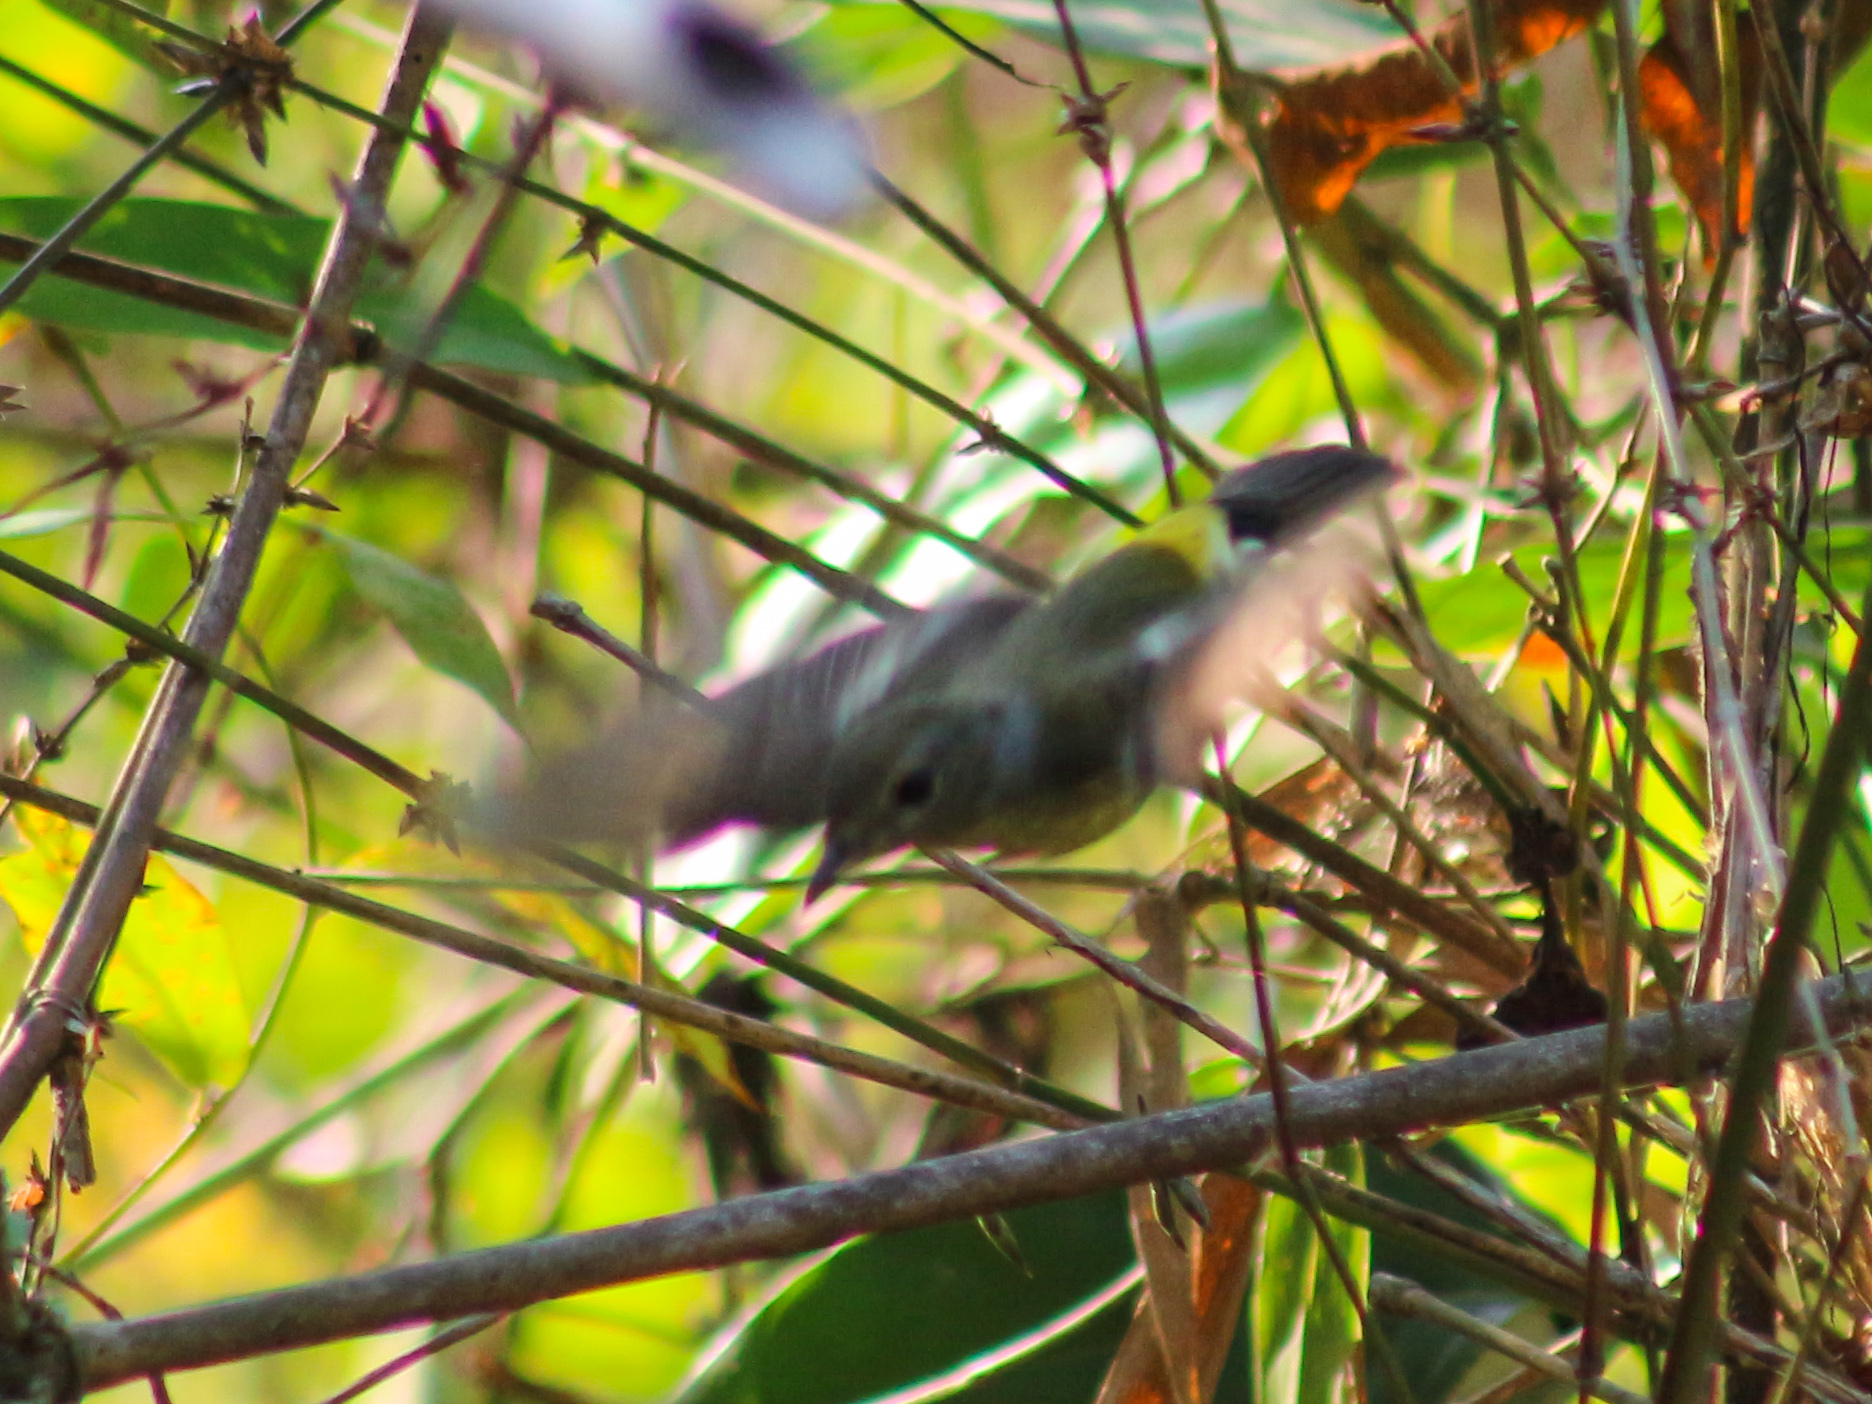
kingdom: Animalia
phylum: Chordata
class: Aves
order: Passeriformes
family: Muscicapidae
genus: Ficedula
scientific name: Ficedula zanthopygia
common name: Yellow-rumped flycatcher
